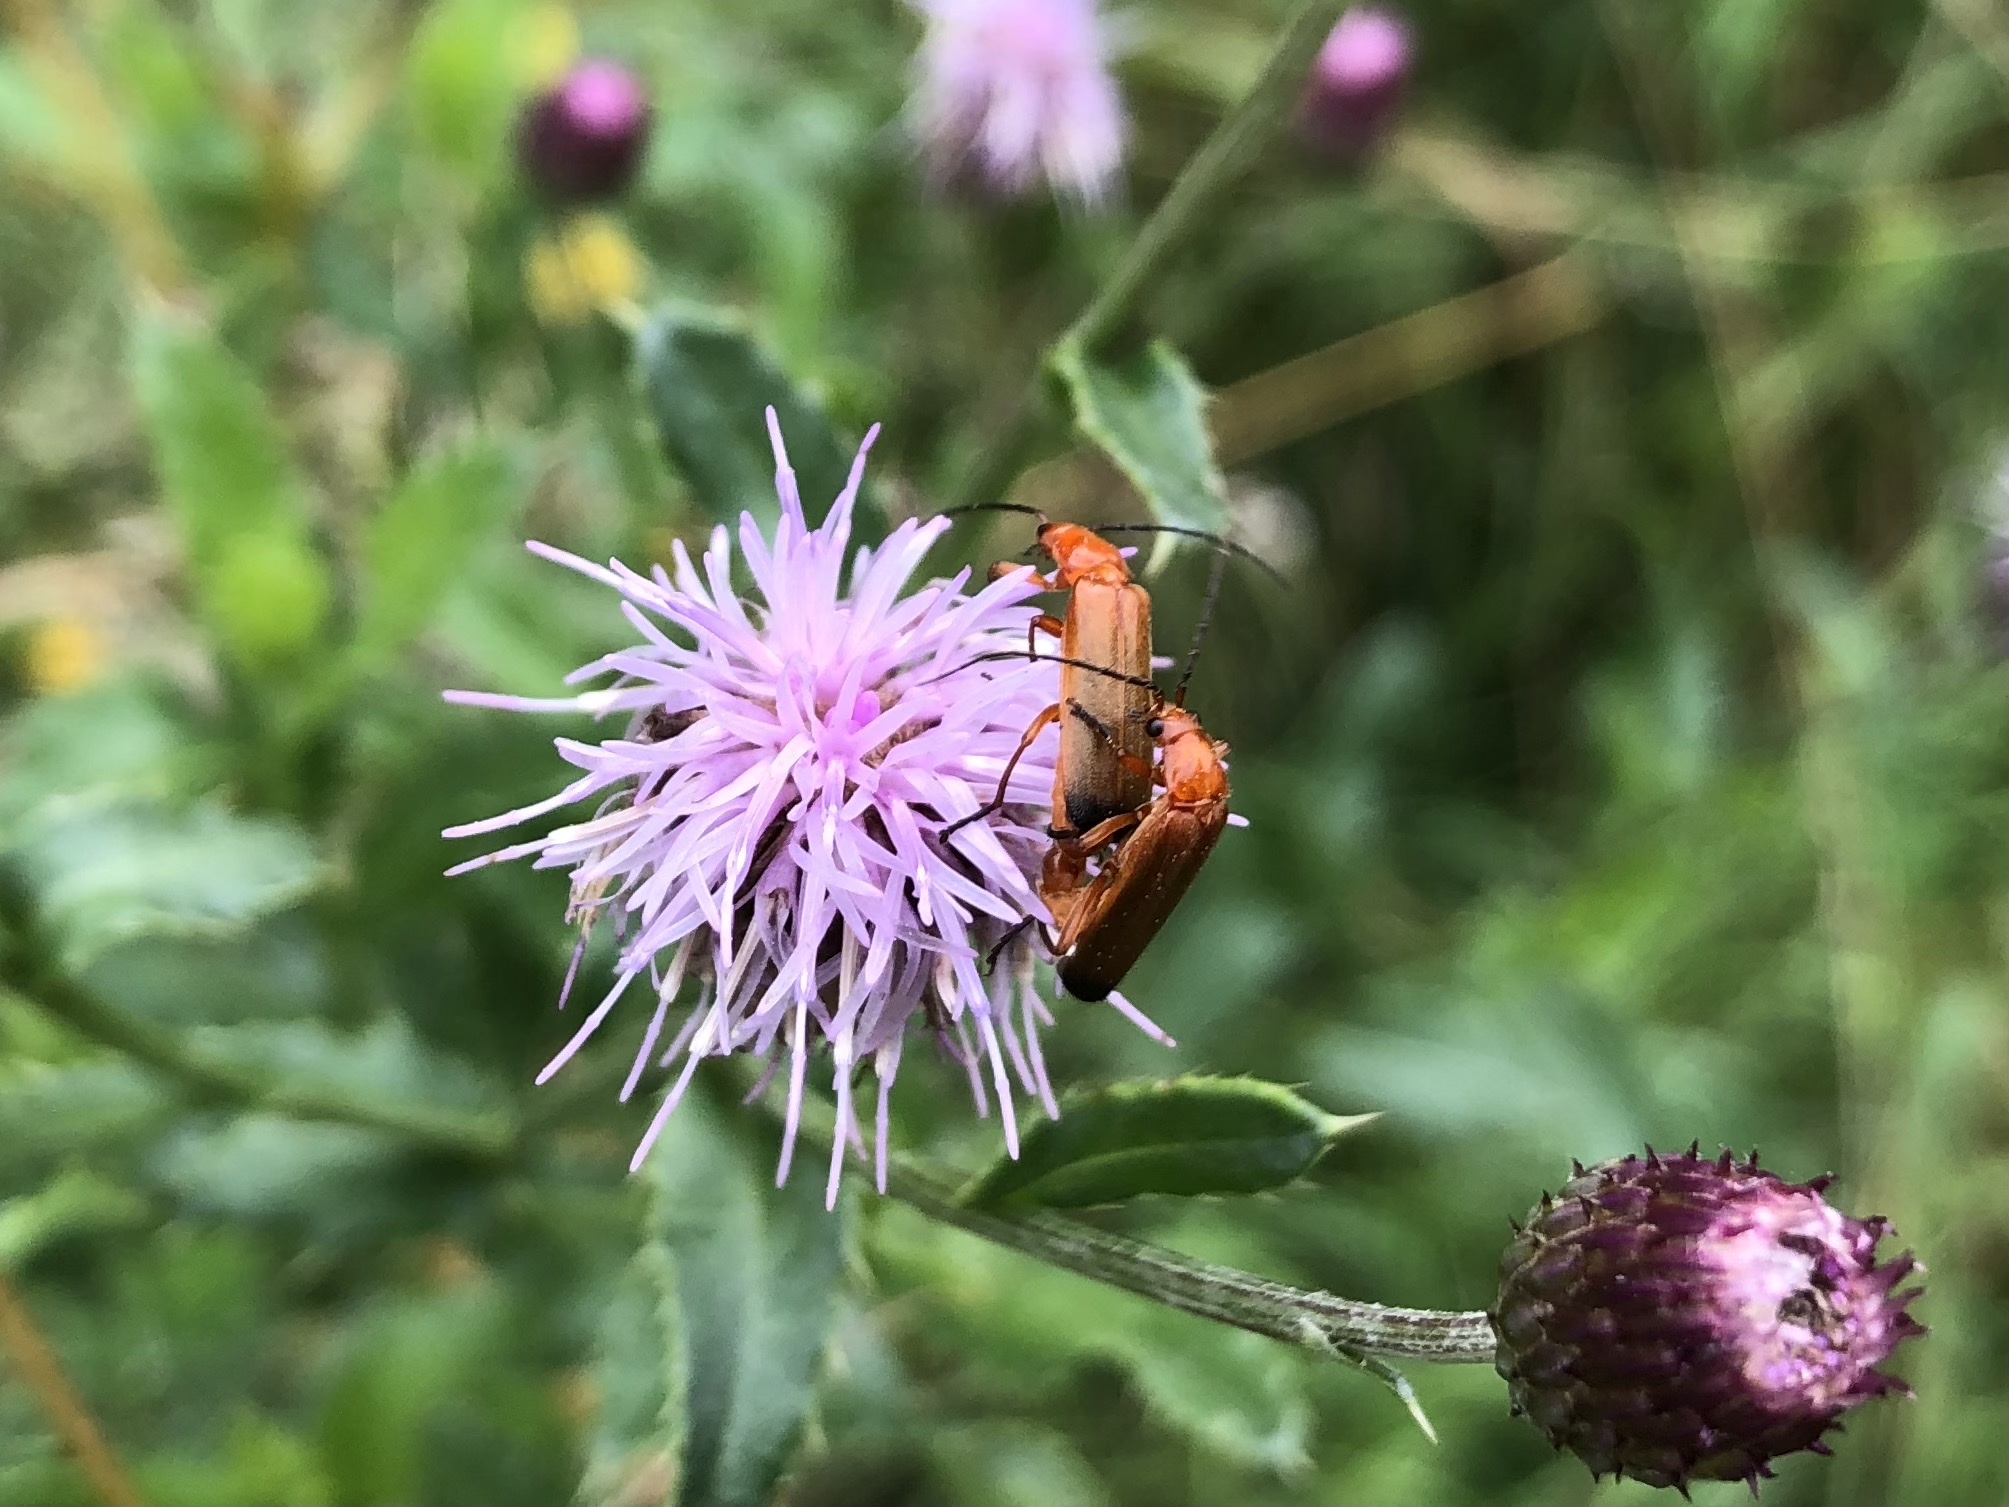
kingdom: Animalia
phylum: Arthropoda
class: Insecta
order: Coleoptera
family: Cantharidae
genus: Rhagonycha
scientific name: Rhagonycha fulva
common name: Common red soldier beetle
